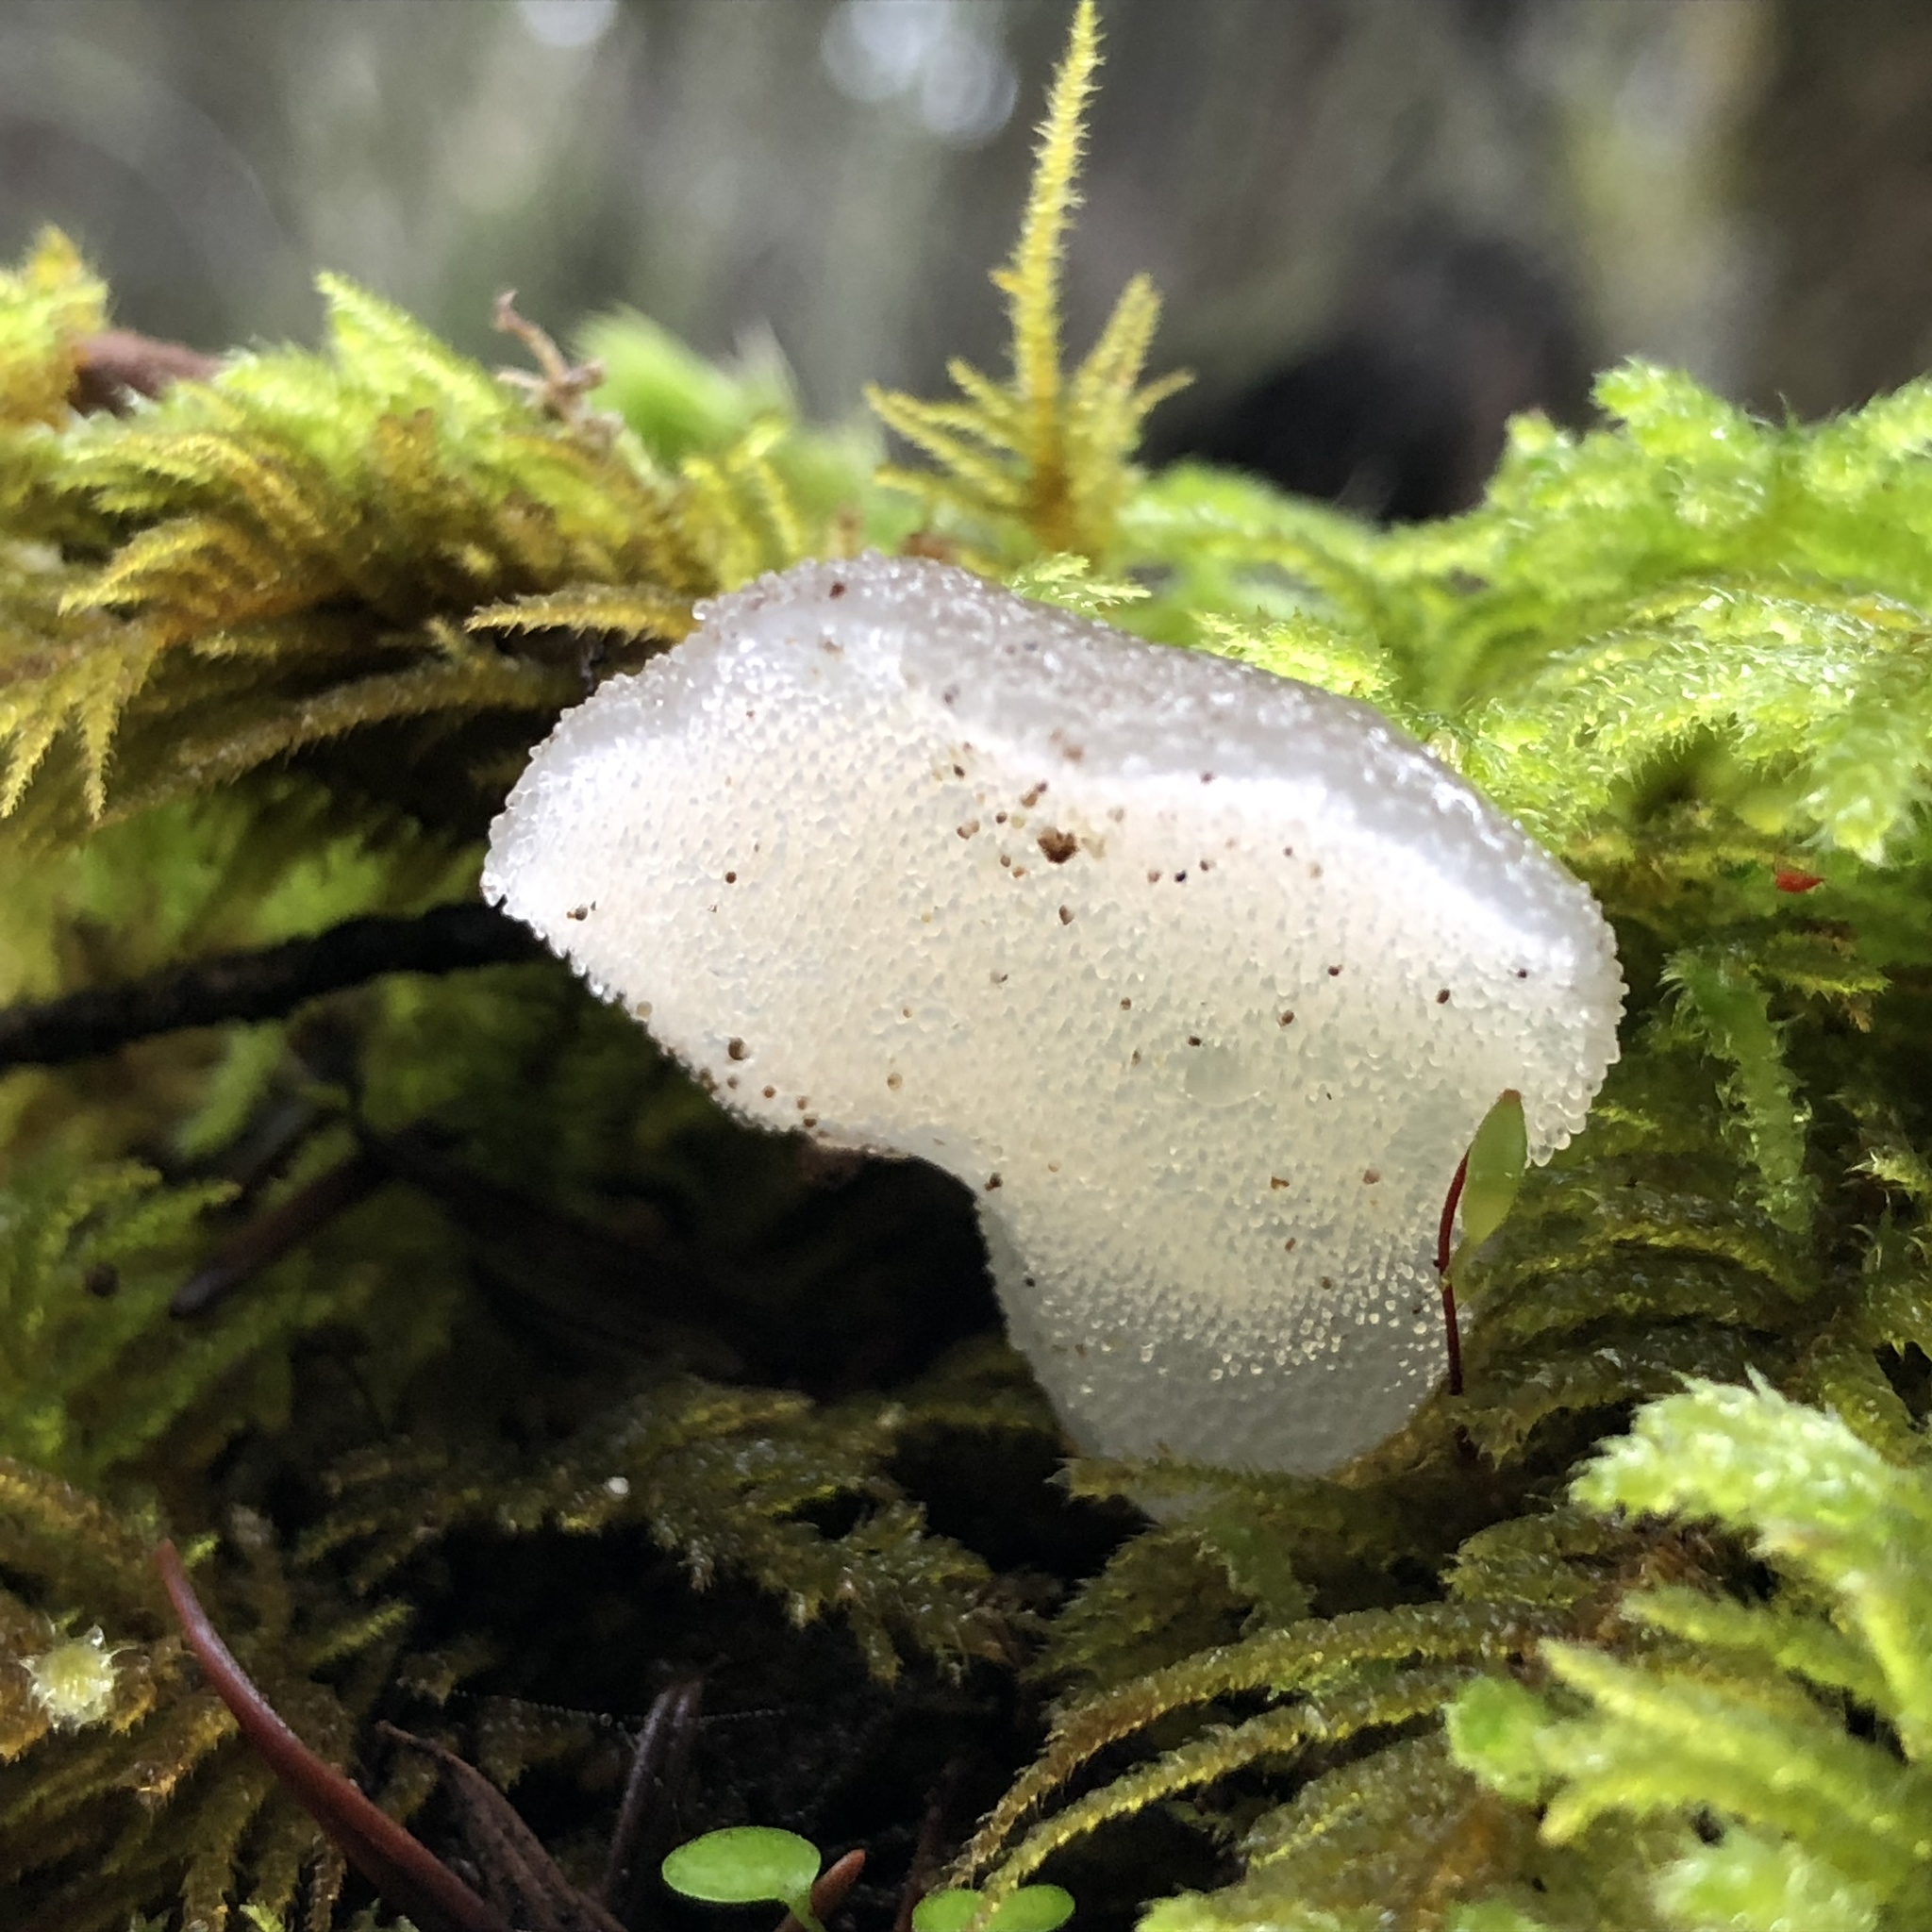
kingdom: Fungi
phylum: Basidiomycota
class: Agaricomycetes
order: Auriculariales
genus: Pseudohydnum
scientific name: Pseudohydnum gelatinosum
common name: Jelly tongue
